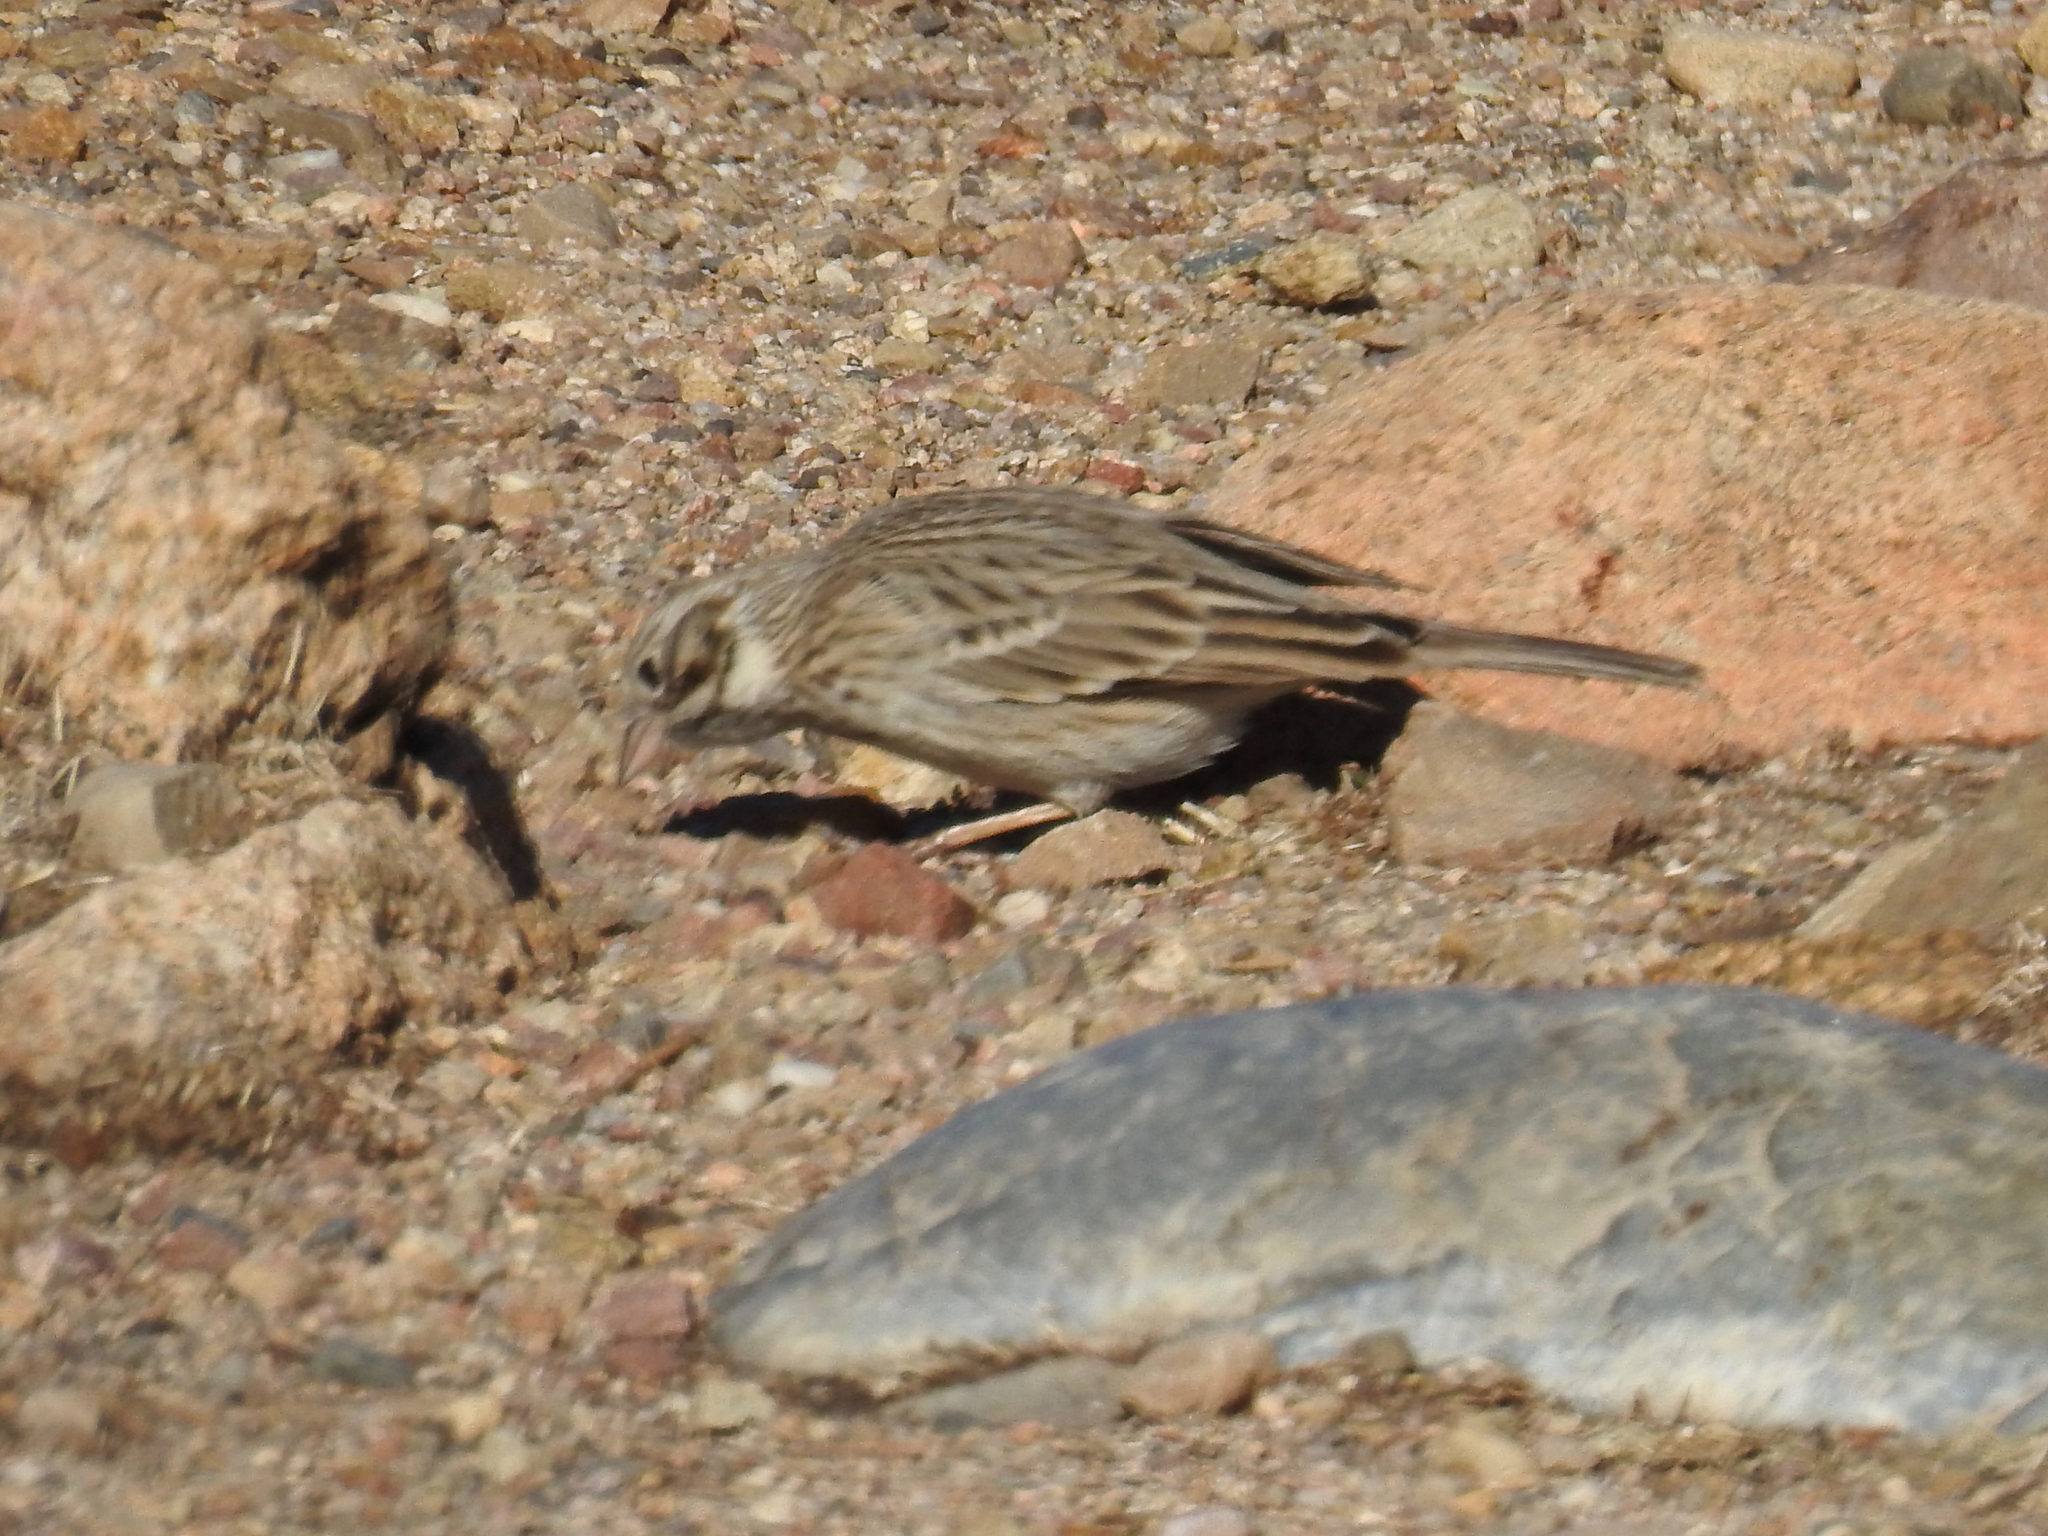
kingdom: Animalia
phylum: Chordata
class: Aves
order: Passeriformes
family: Passerellidae
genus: Pooecetes
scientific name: Pooecetes gramineus
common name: Vesper sparrow
